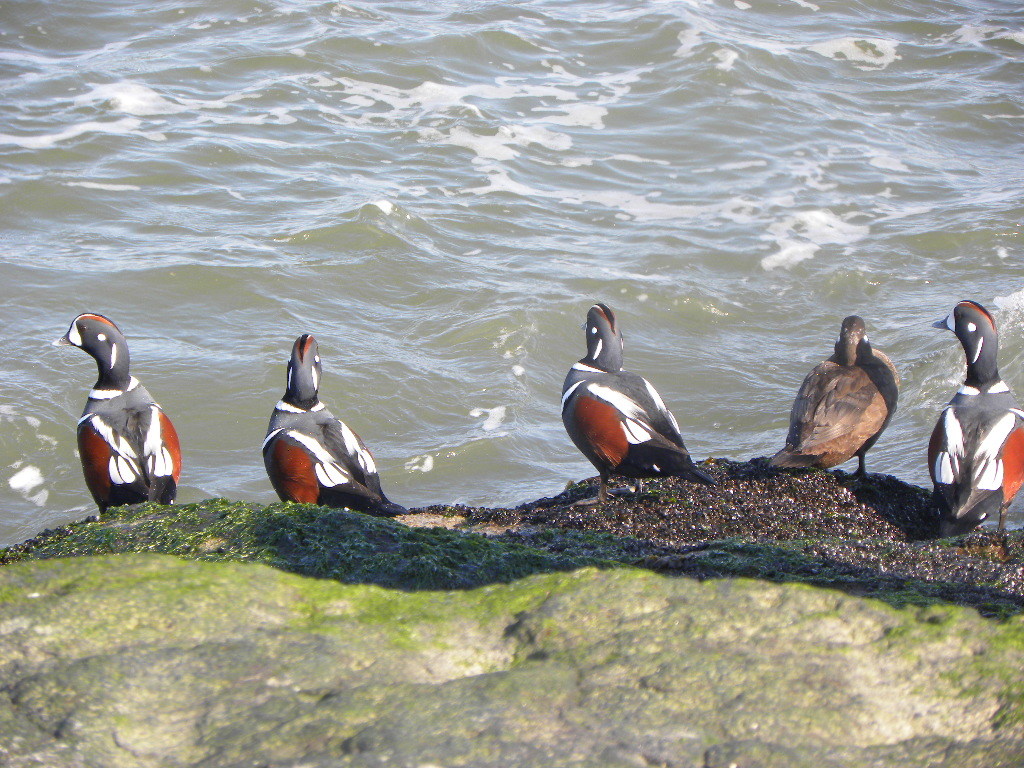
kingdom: Animalia
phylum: Chordata
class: Aves
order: Anseriformes
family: Anatidae
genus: Histrionicus
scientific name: Histrionicus histrionicus
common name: Harlequin duck
